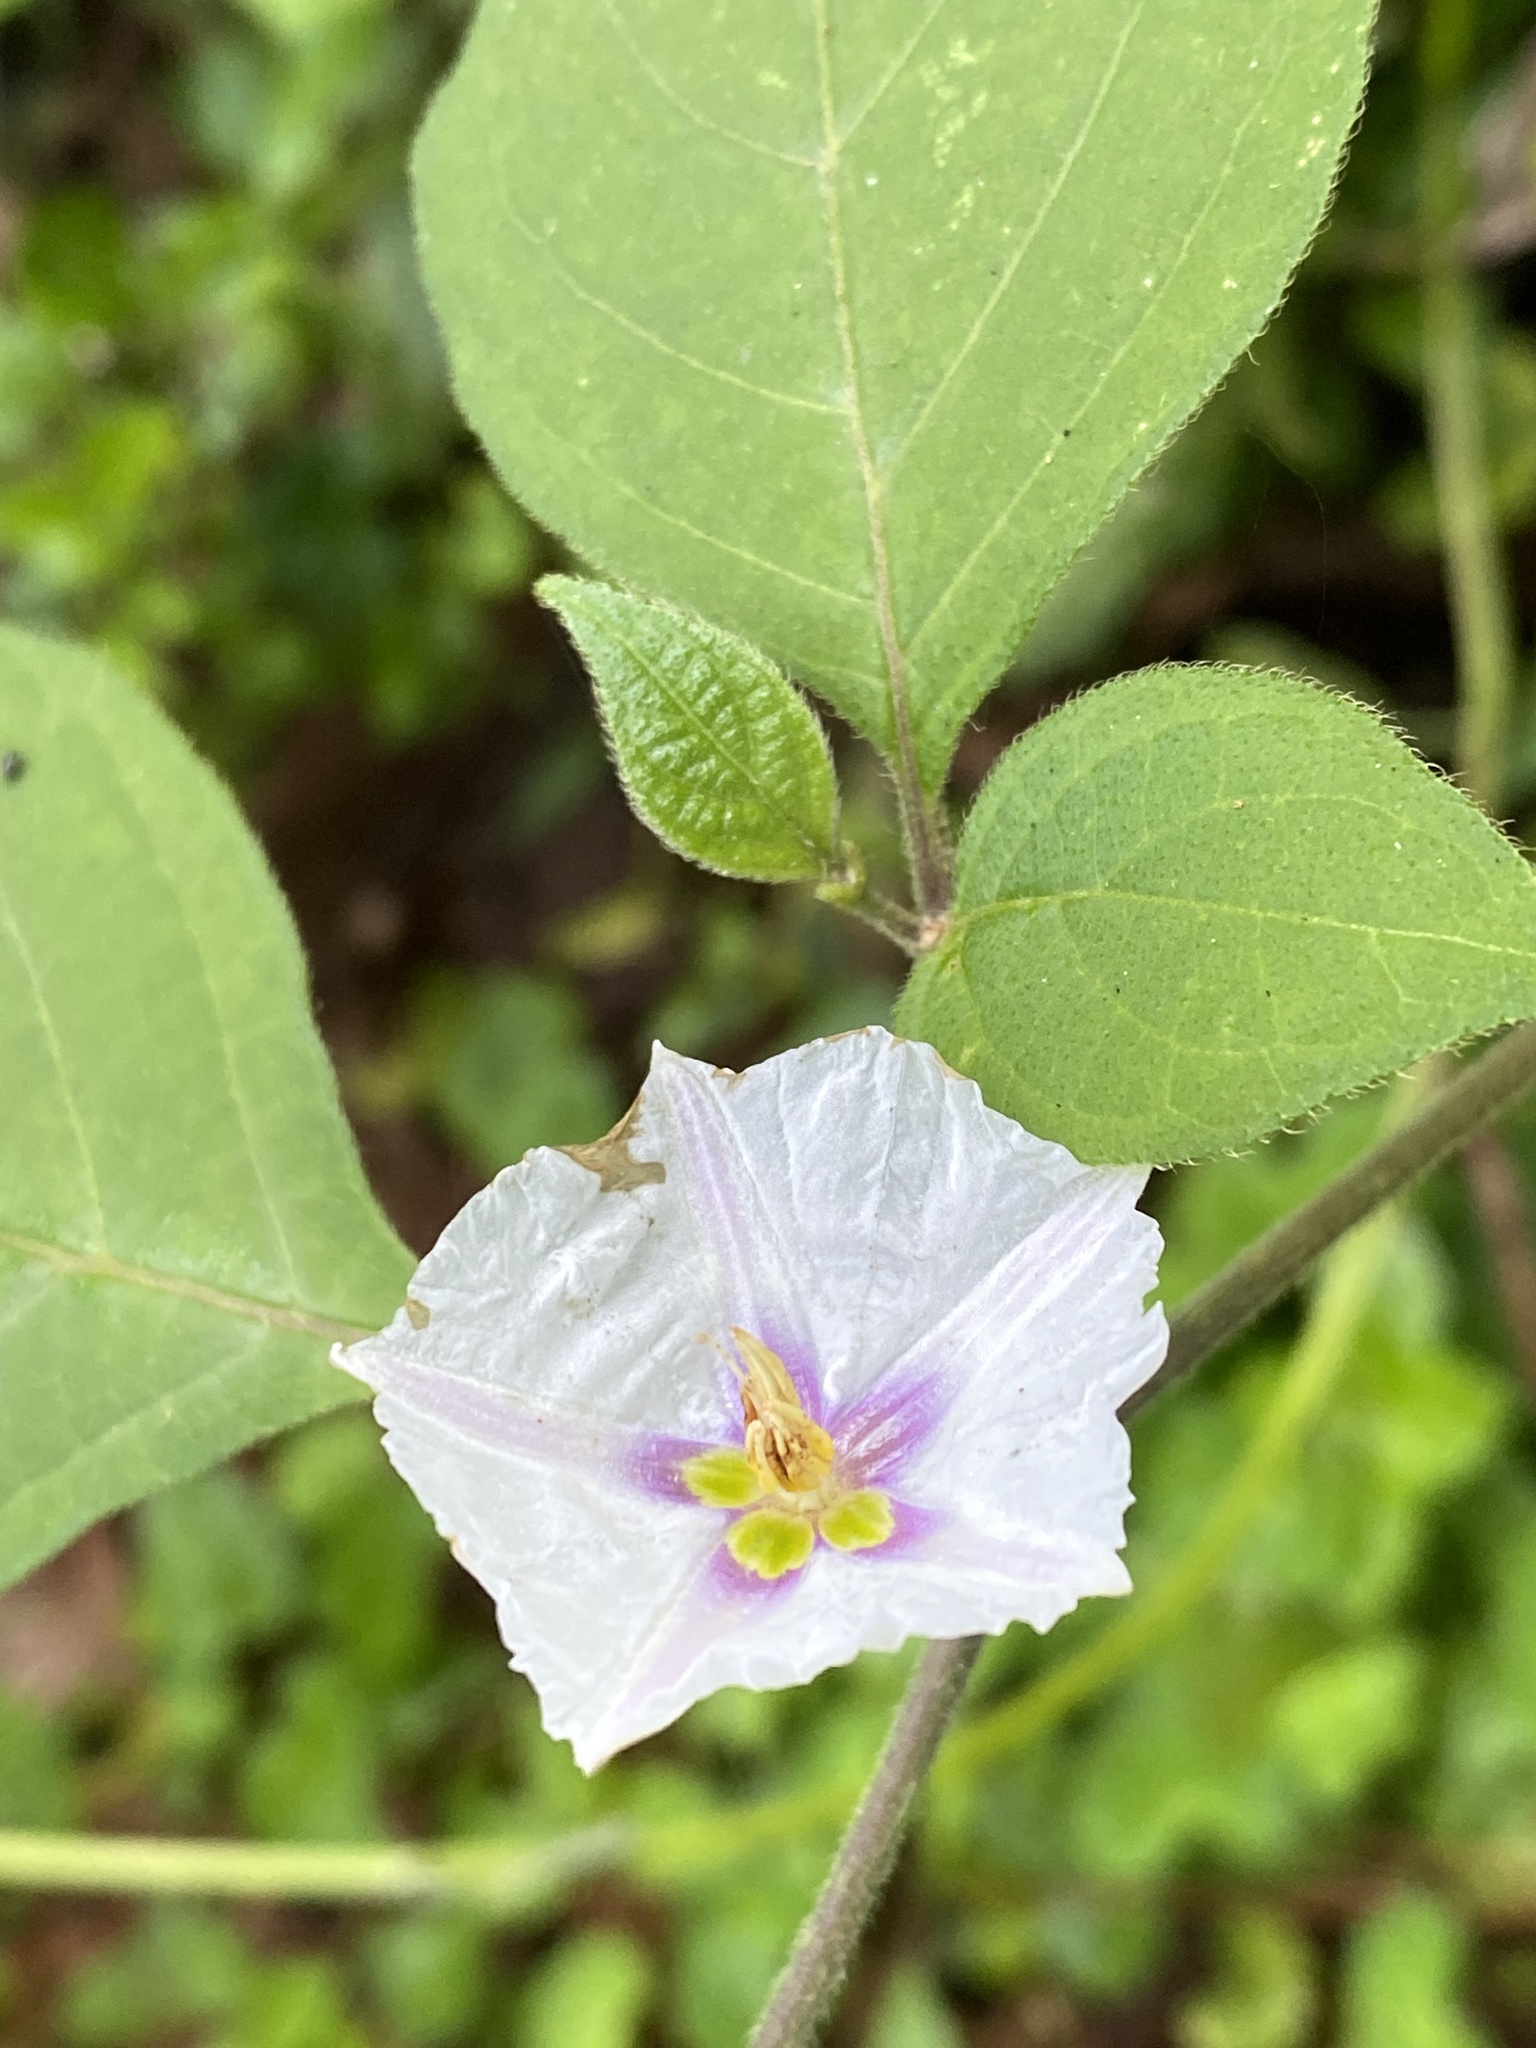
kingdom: Plantae
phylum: Tracheophyta
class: Magnoliopsida
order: Solanales
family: Solanaceae
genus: Lycianthes
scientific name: Lycianthes tricolor
